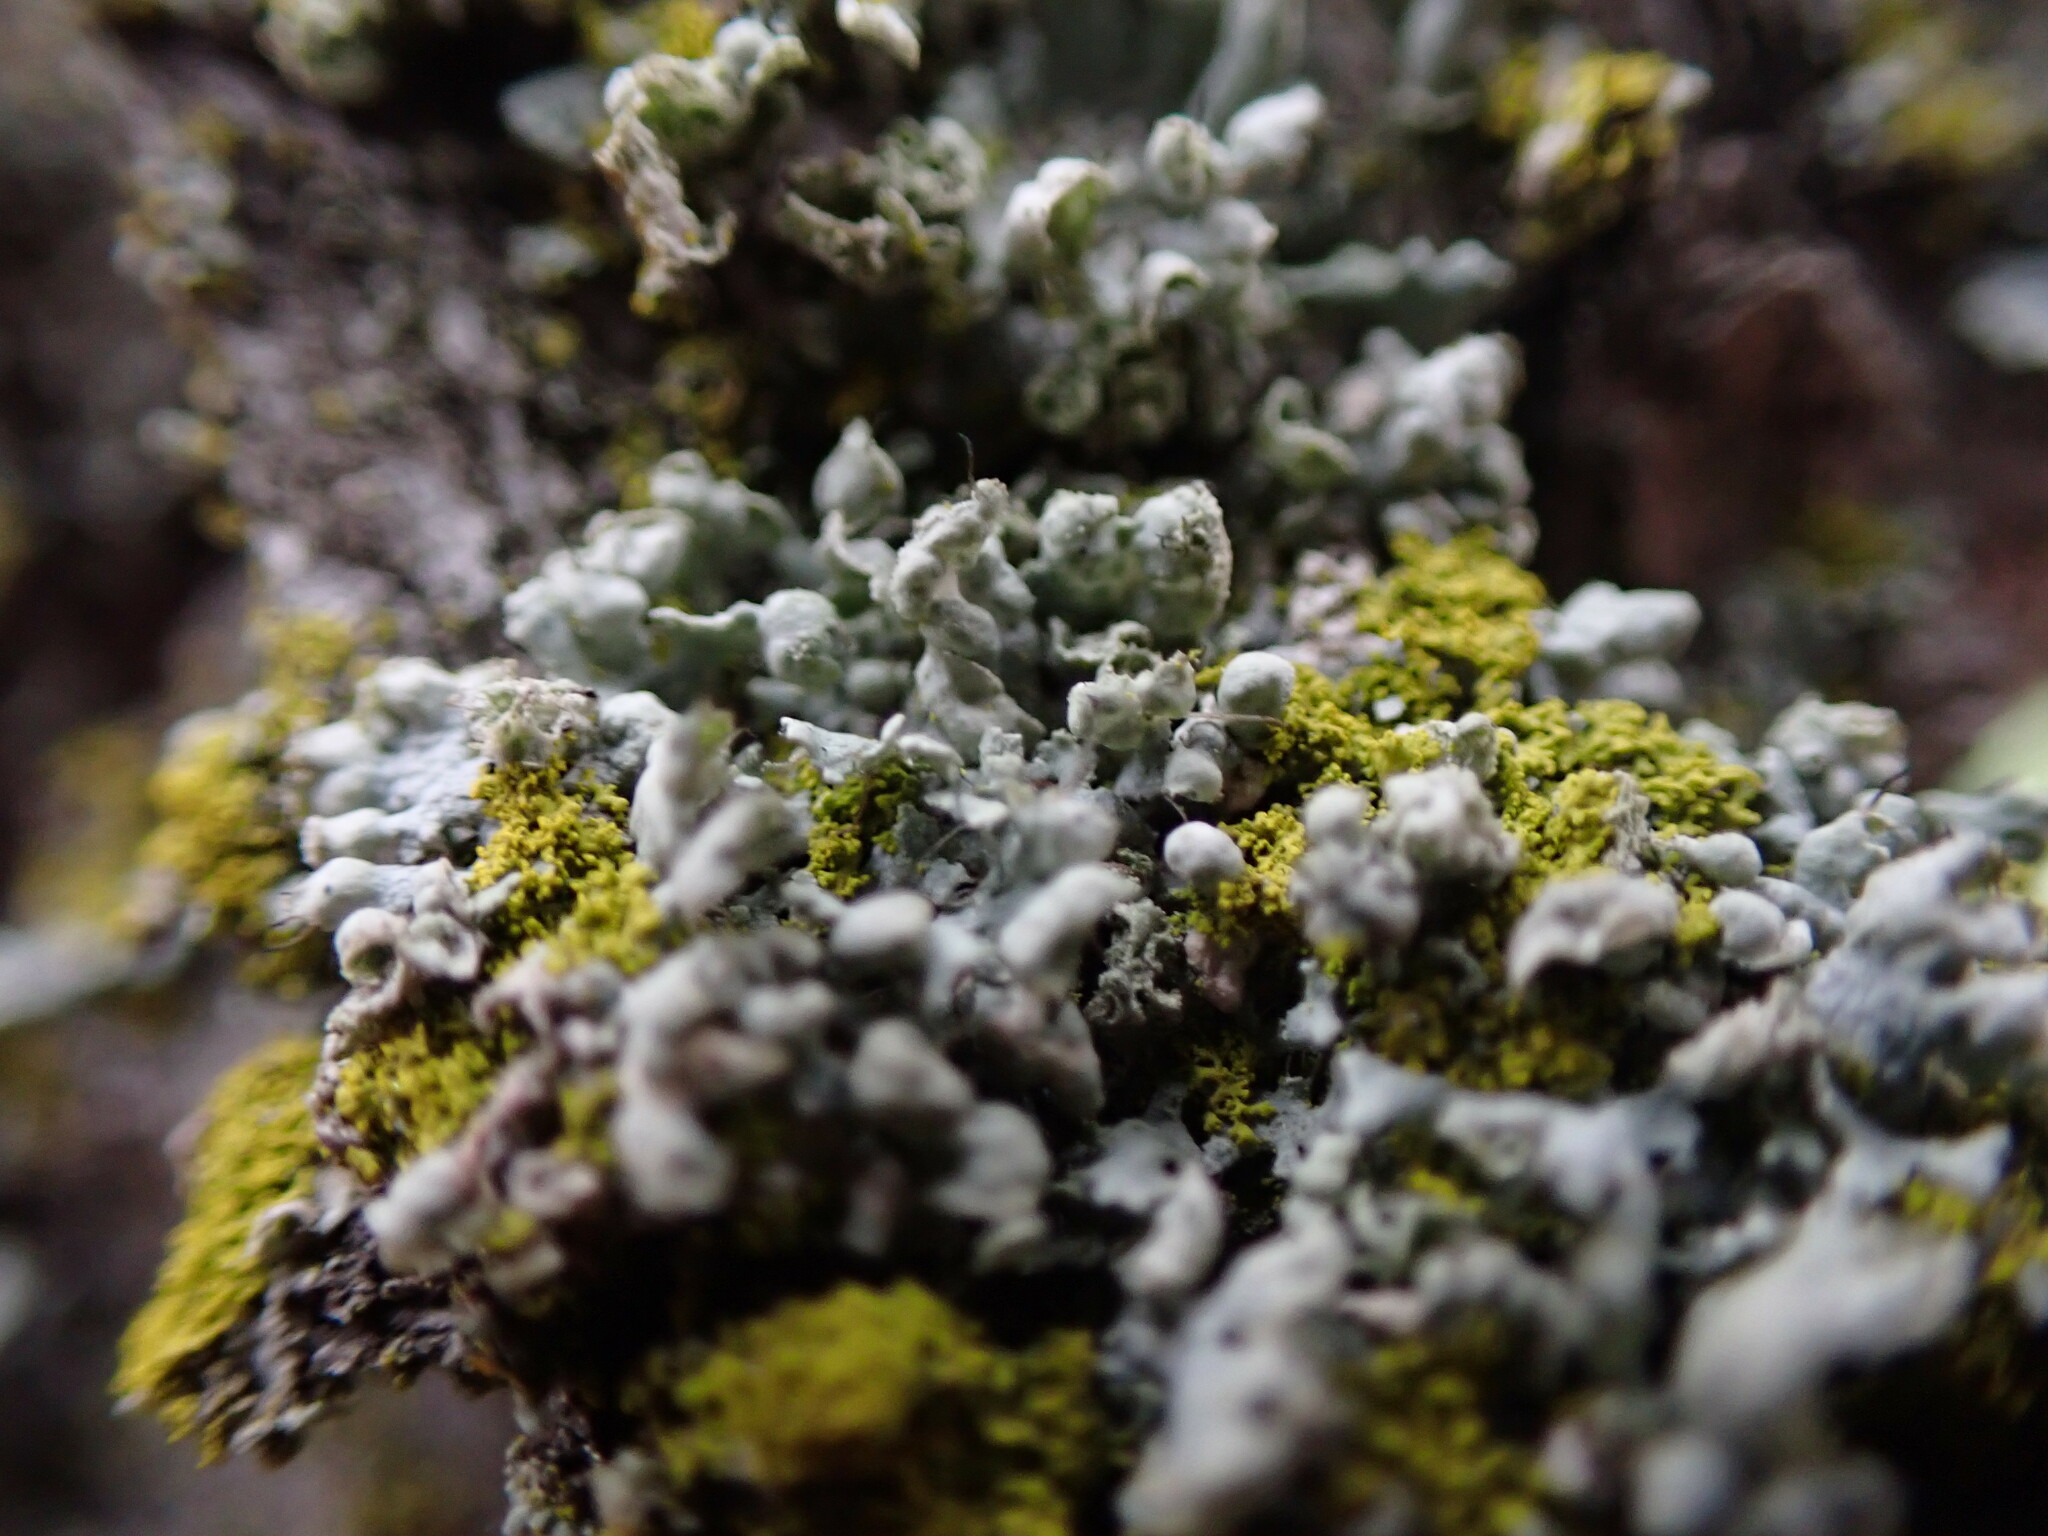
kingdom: Fungi
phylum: Ascomycota
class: Lecanoromycetes
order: Caliciales
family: Physciaceae
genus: Physcia
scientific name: Physcia adscendens
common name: Hooded rosette lichen
